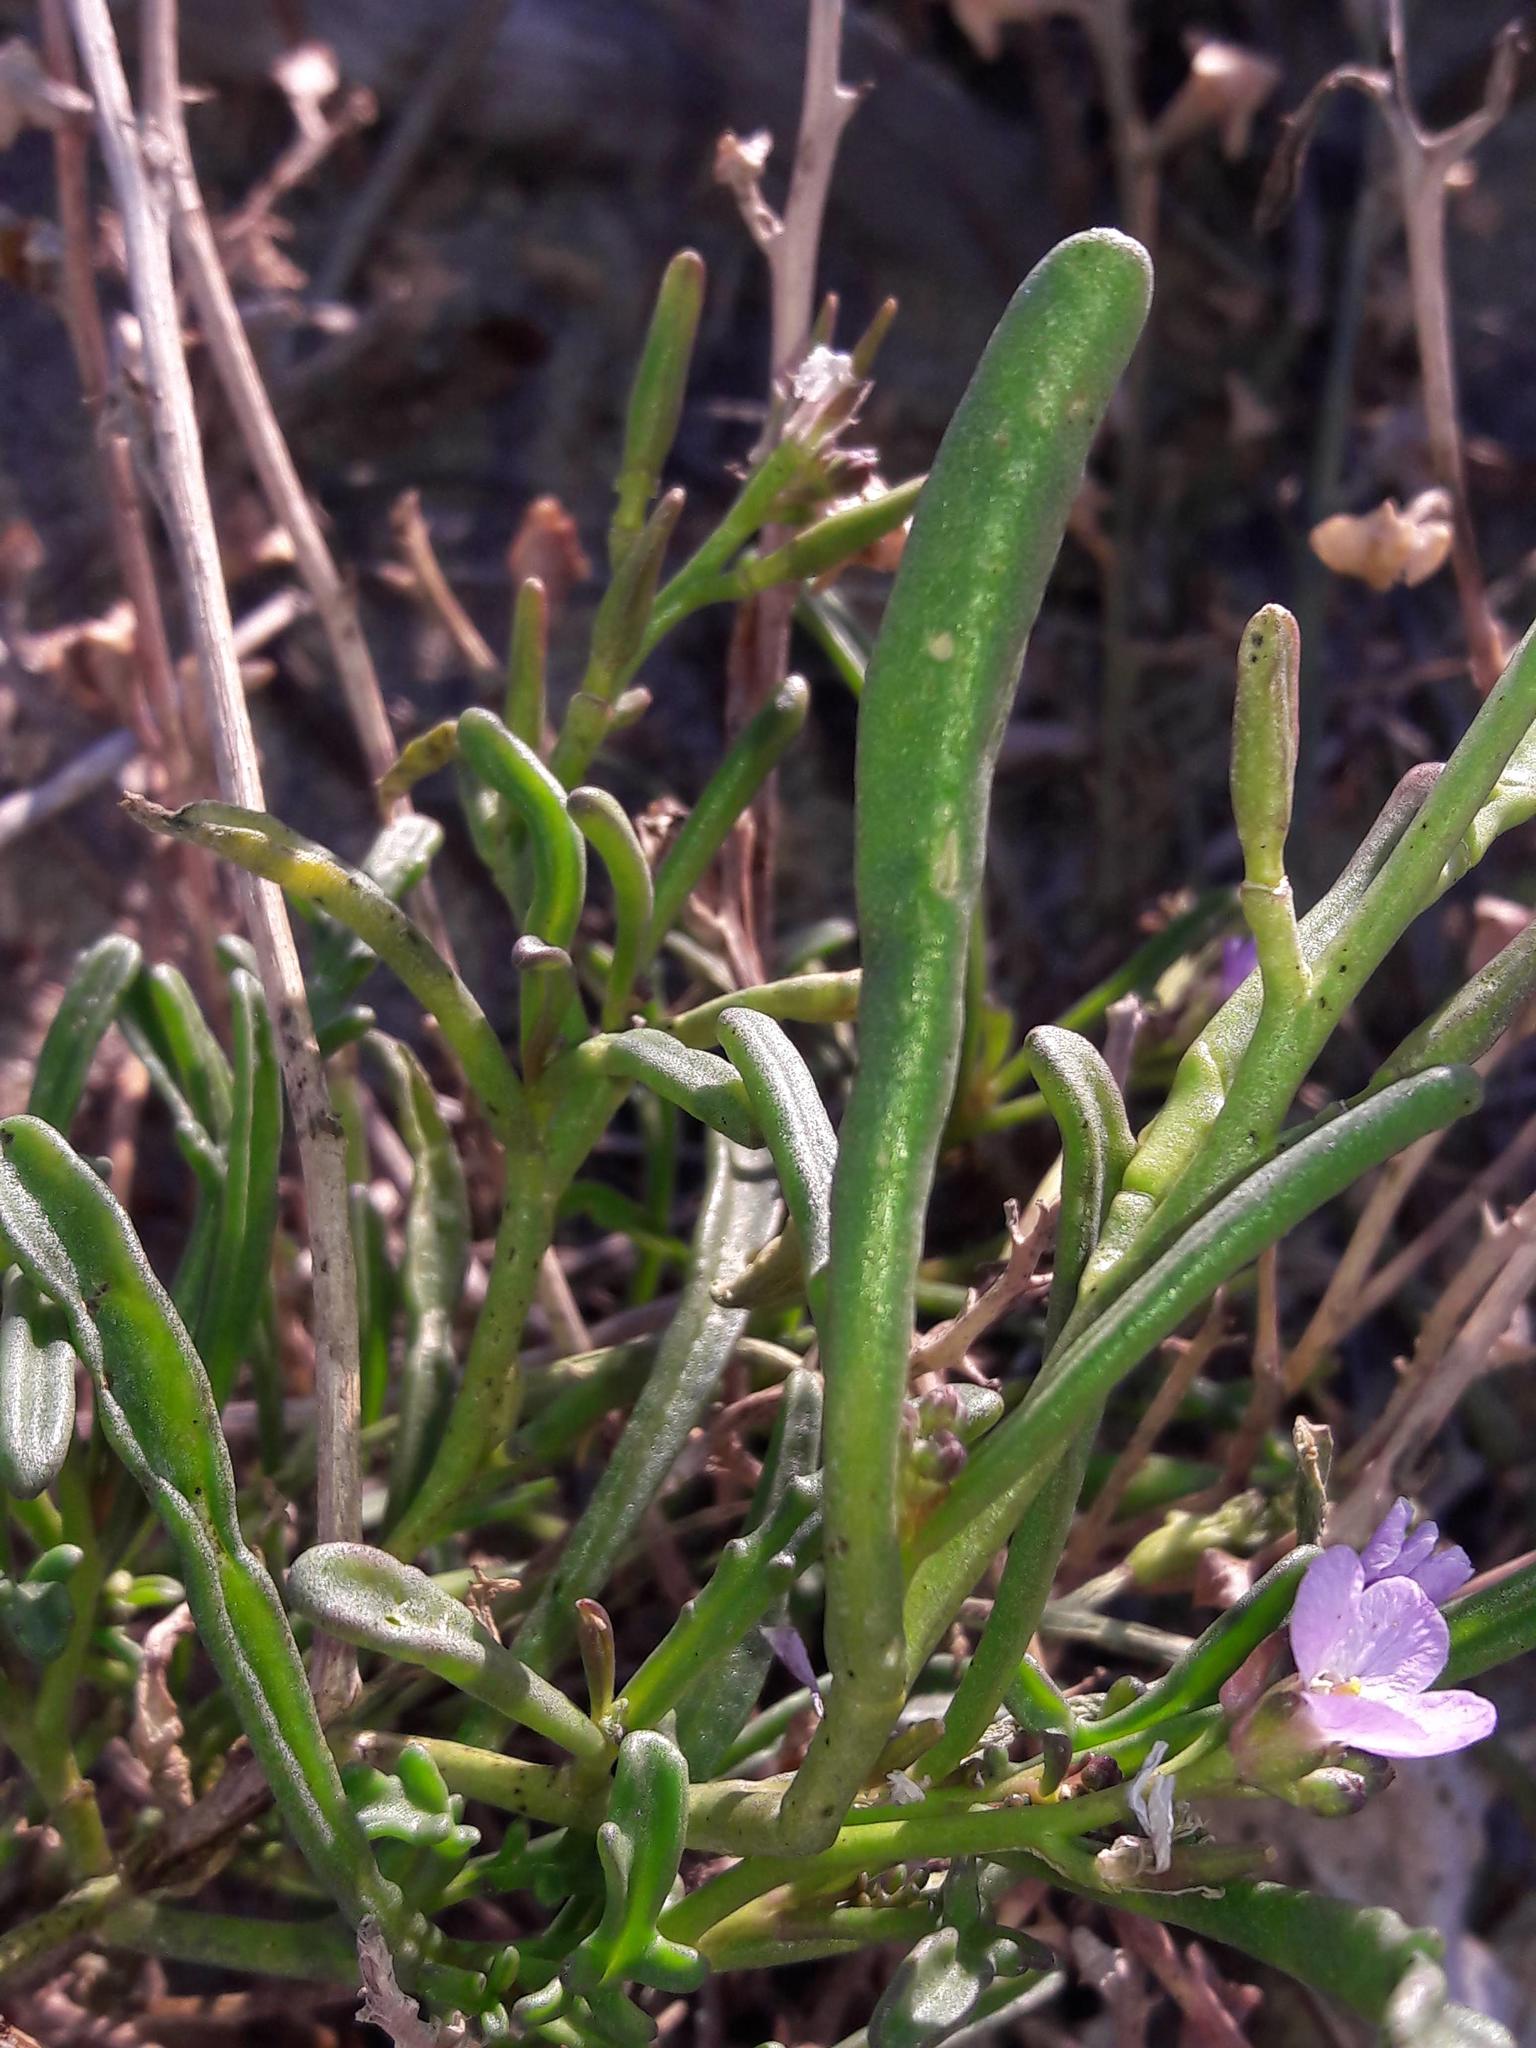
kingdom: Plantae
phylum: Tracheophyta
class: Magnoliopsida
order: Brassicales
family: Brassicaceae
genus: Cakile
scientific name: Cakile maritima
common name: Sea rocket
